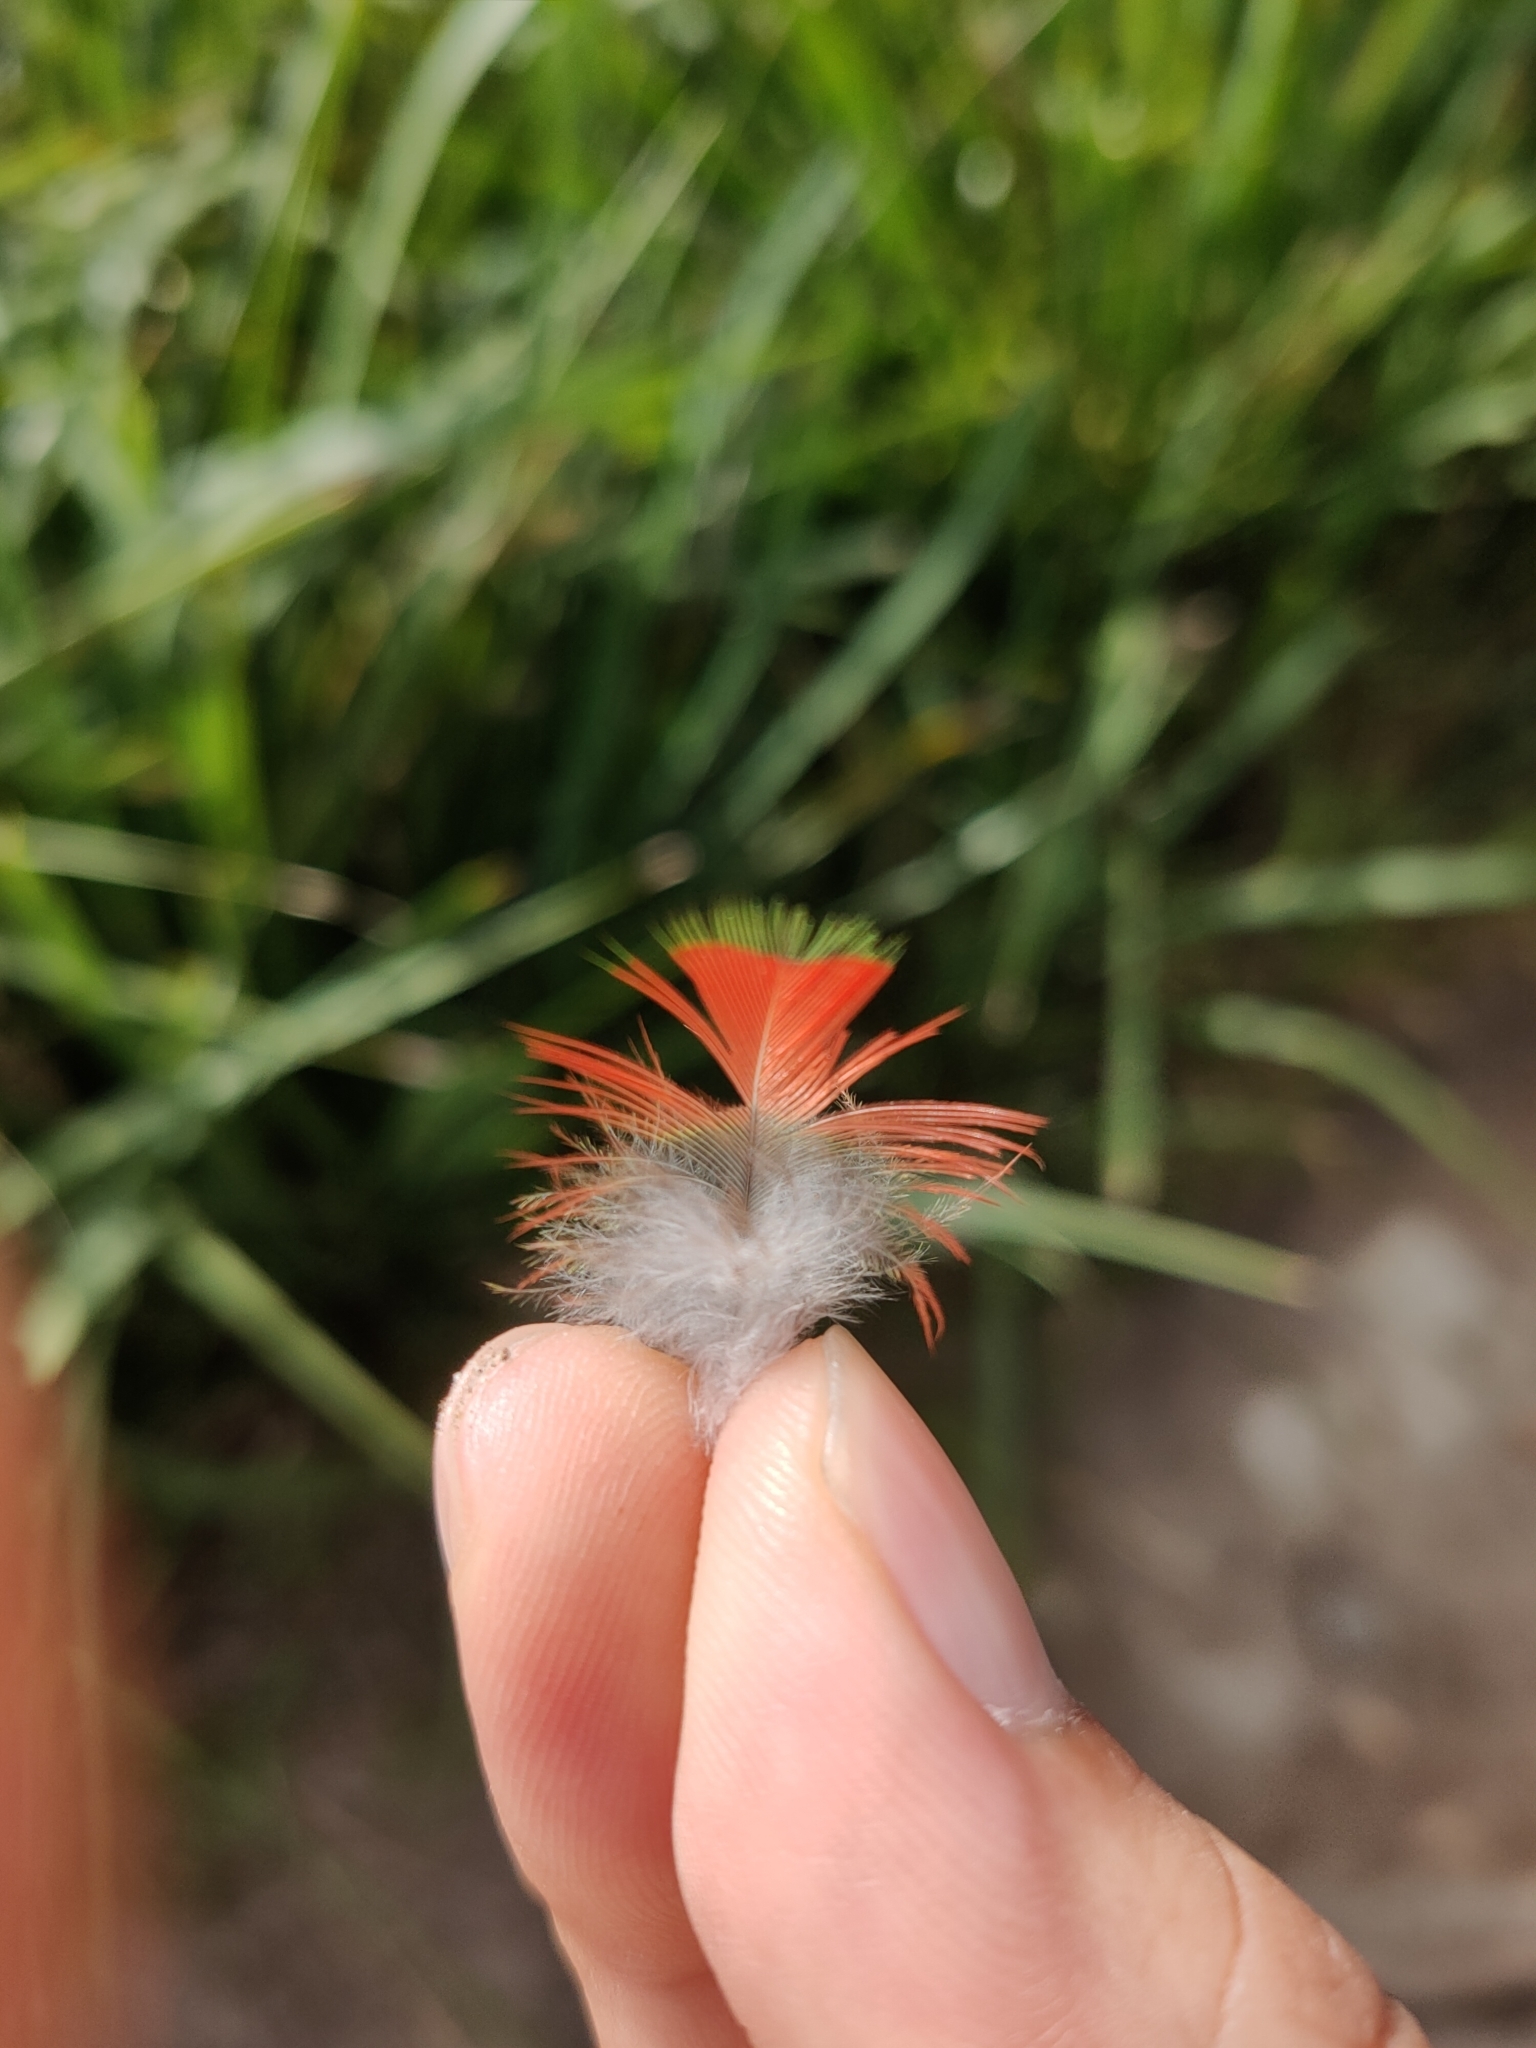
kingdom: Animalia
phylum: Chordata
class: Aves
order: Psittaciformes
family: Psittacidae
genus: Trichoglossus
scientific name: Trichoglossus haematodus
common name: Coconut lorikeet
